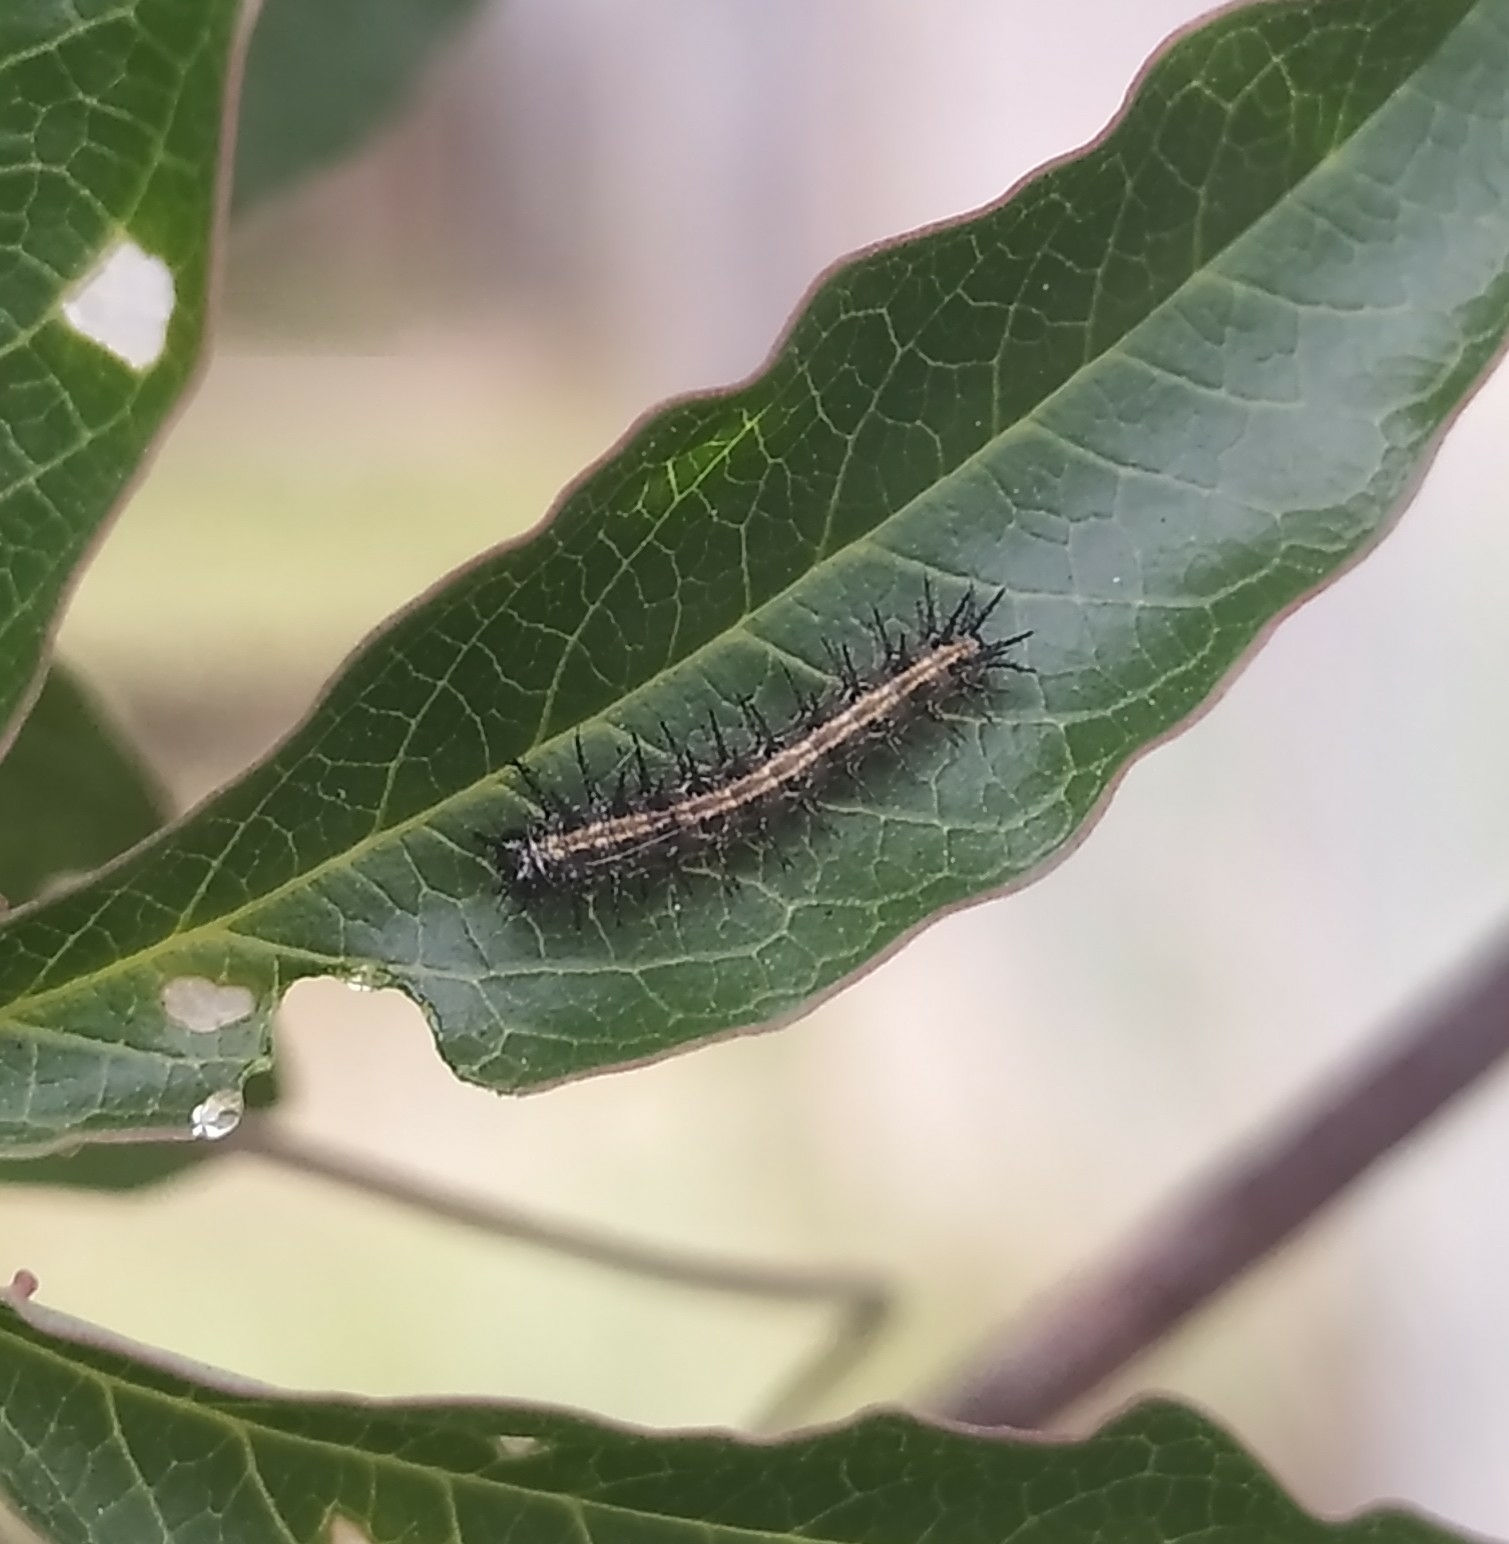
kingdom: Animalia
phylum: Arthropoda
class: Insecta
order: Lepidoptera
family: Nymphalidae
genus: Dione
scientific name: Dione vanillae
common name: Gulf fritillary
